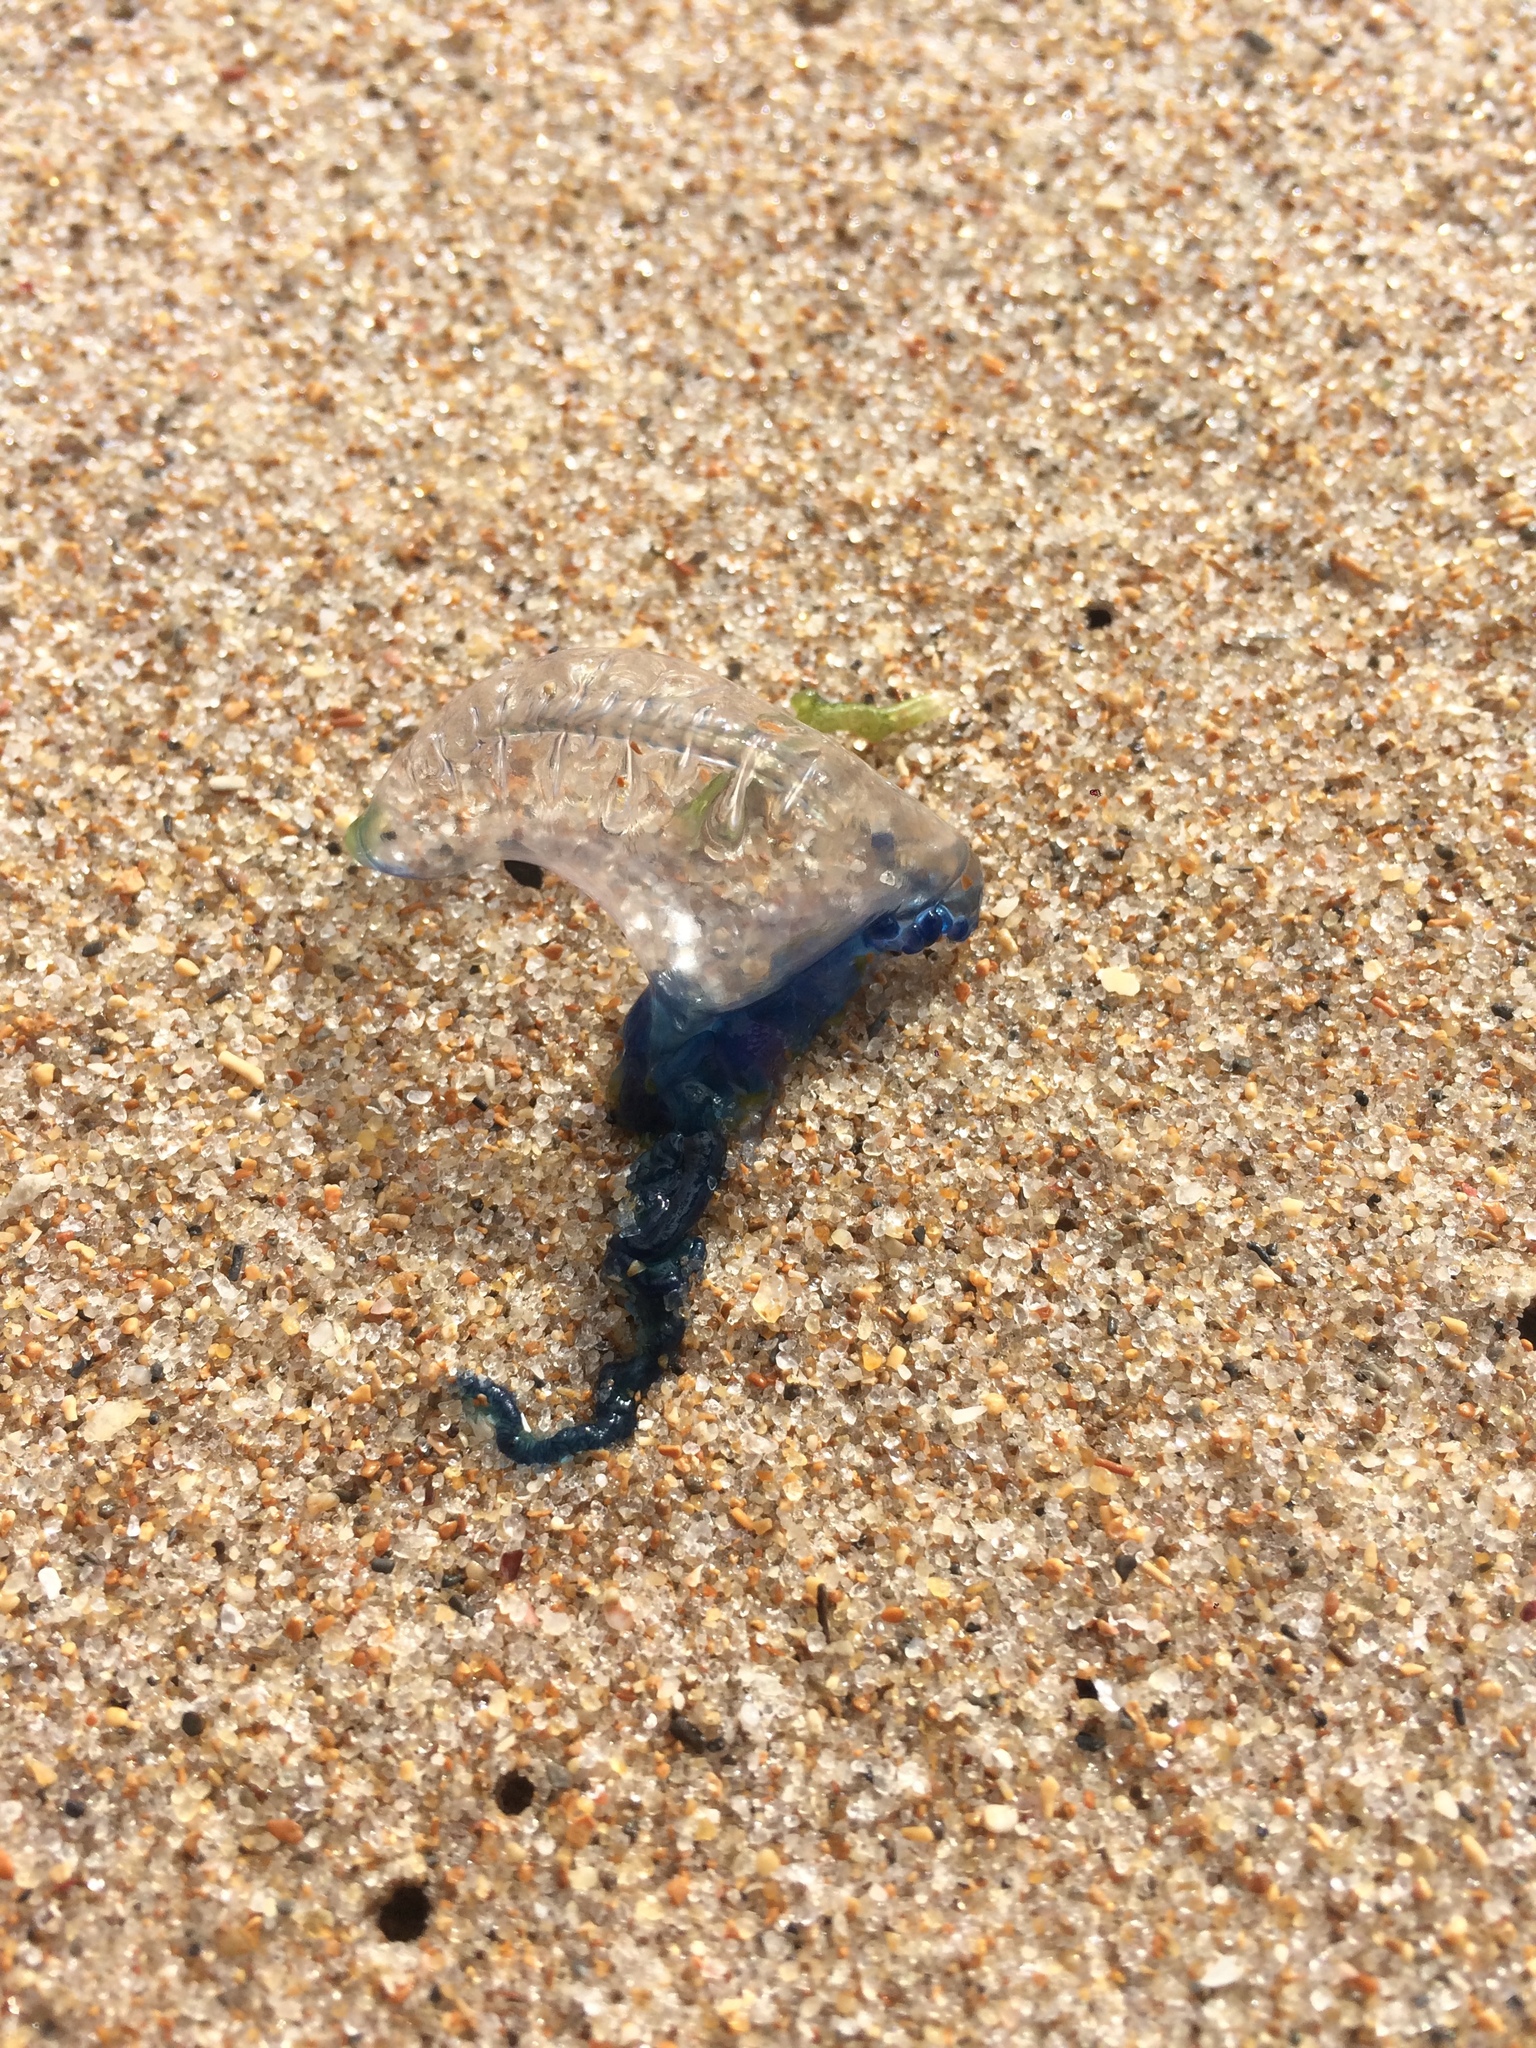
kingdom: Animalia
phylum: Cnidaria
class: Hydrozoa
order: Siphonophorae
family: Physaliidae
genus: Physalia
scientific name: Physalia physalis
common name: Portuguese man-of-war
